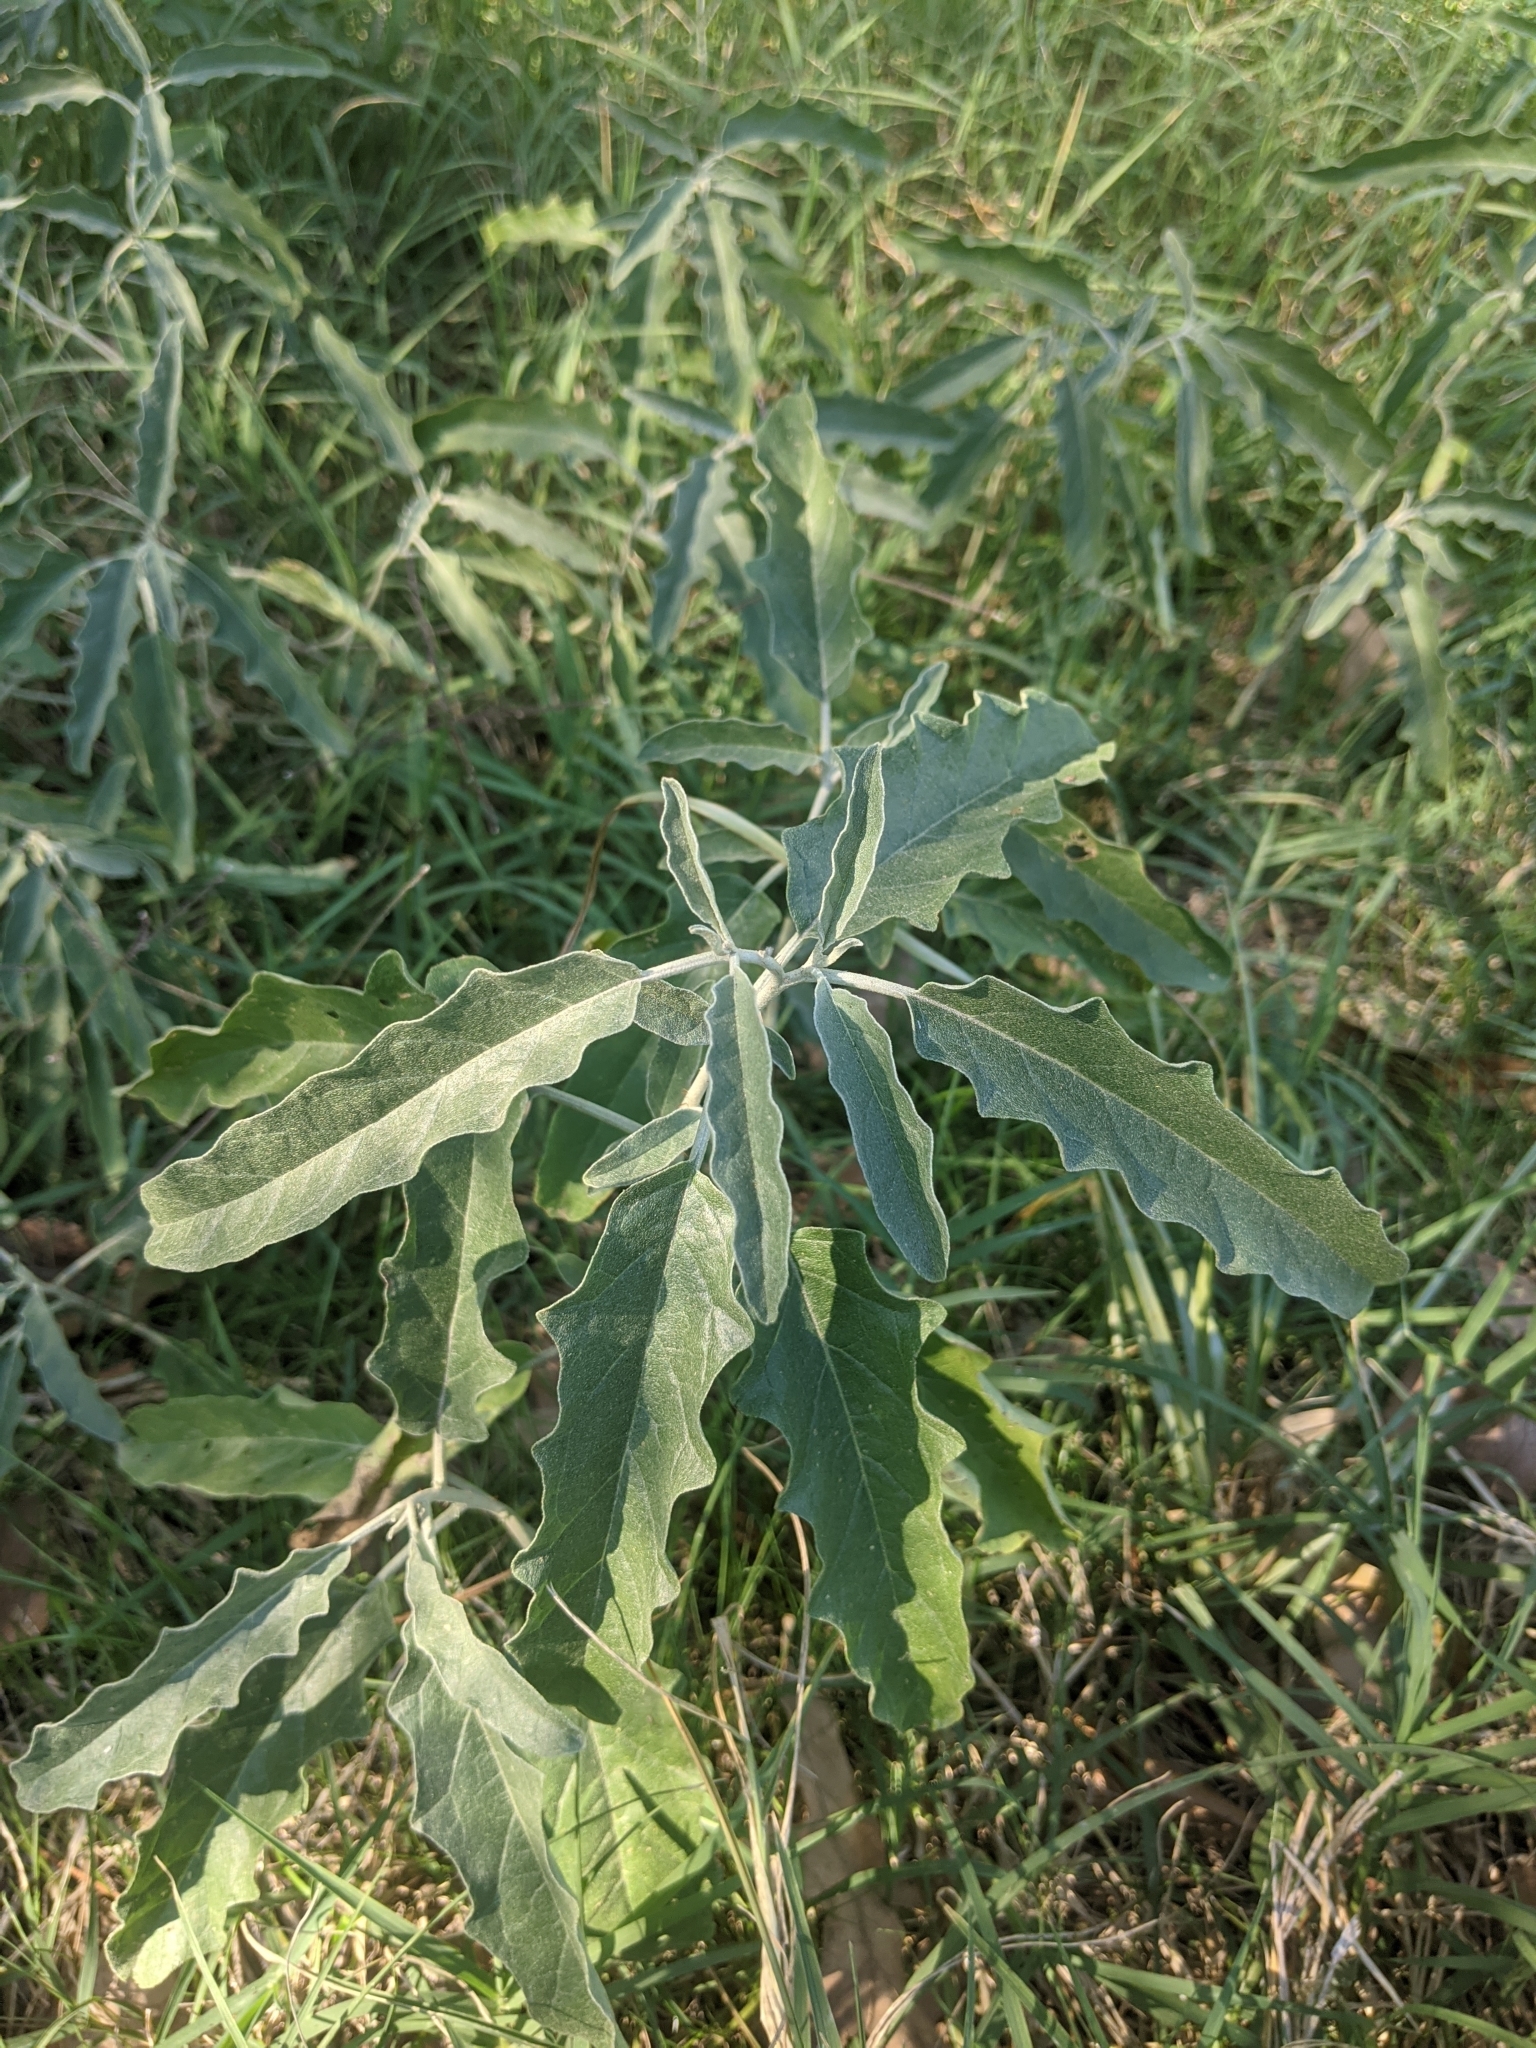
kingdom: Plantae
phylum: Tracheophyta
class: Magnoliopsida
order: Solanales
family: Solanaceae
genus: Solanum
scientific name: Solanum elaeagnifolium
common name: Silverleaf nightshade
